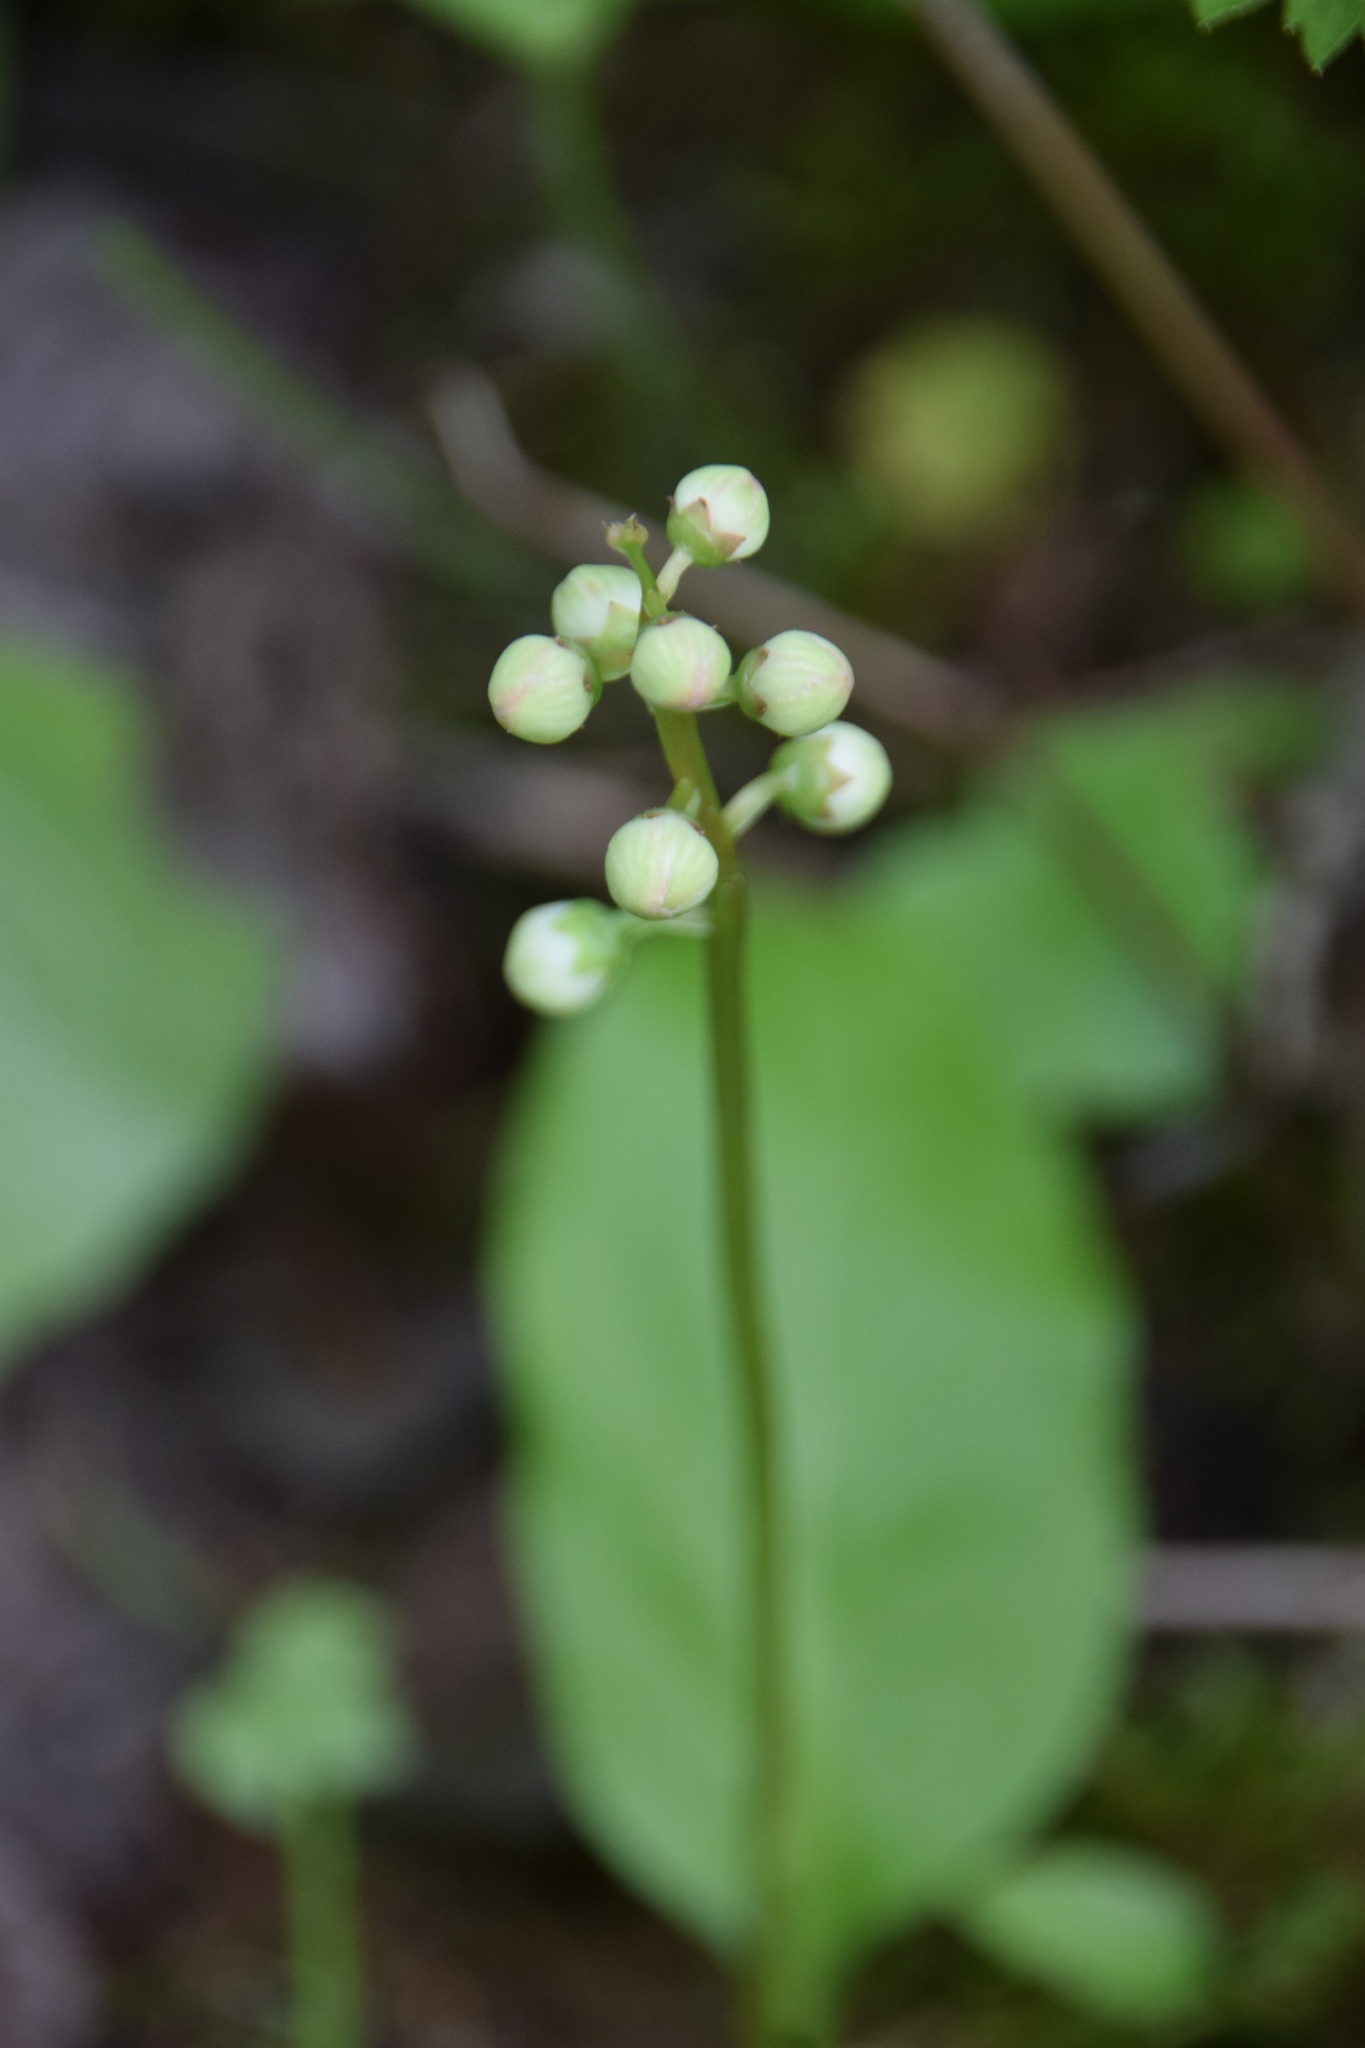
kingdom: Plantae
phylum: Tracheophyta
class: Magnoliopsida
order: Ericales
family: Ericaceae
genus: Pyrola
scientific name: Pyrola elliptica
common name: Shinleaf
